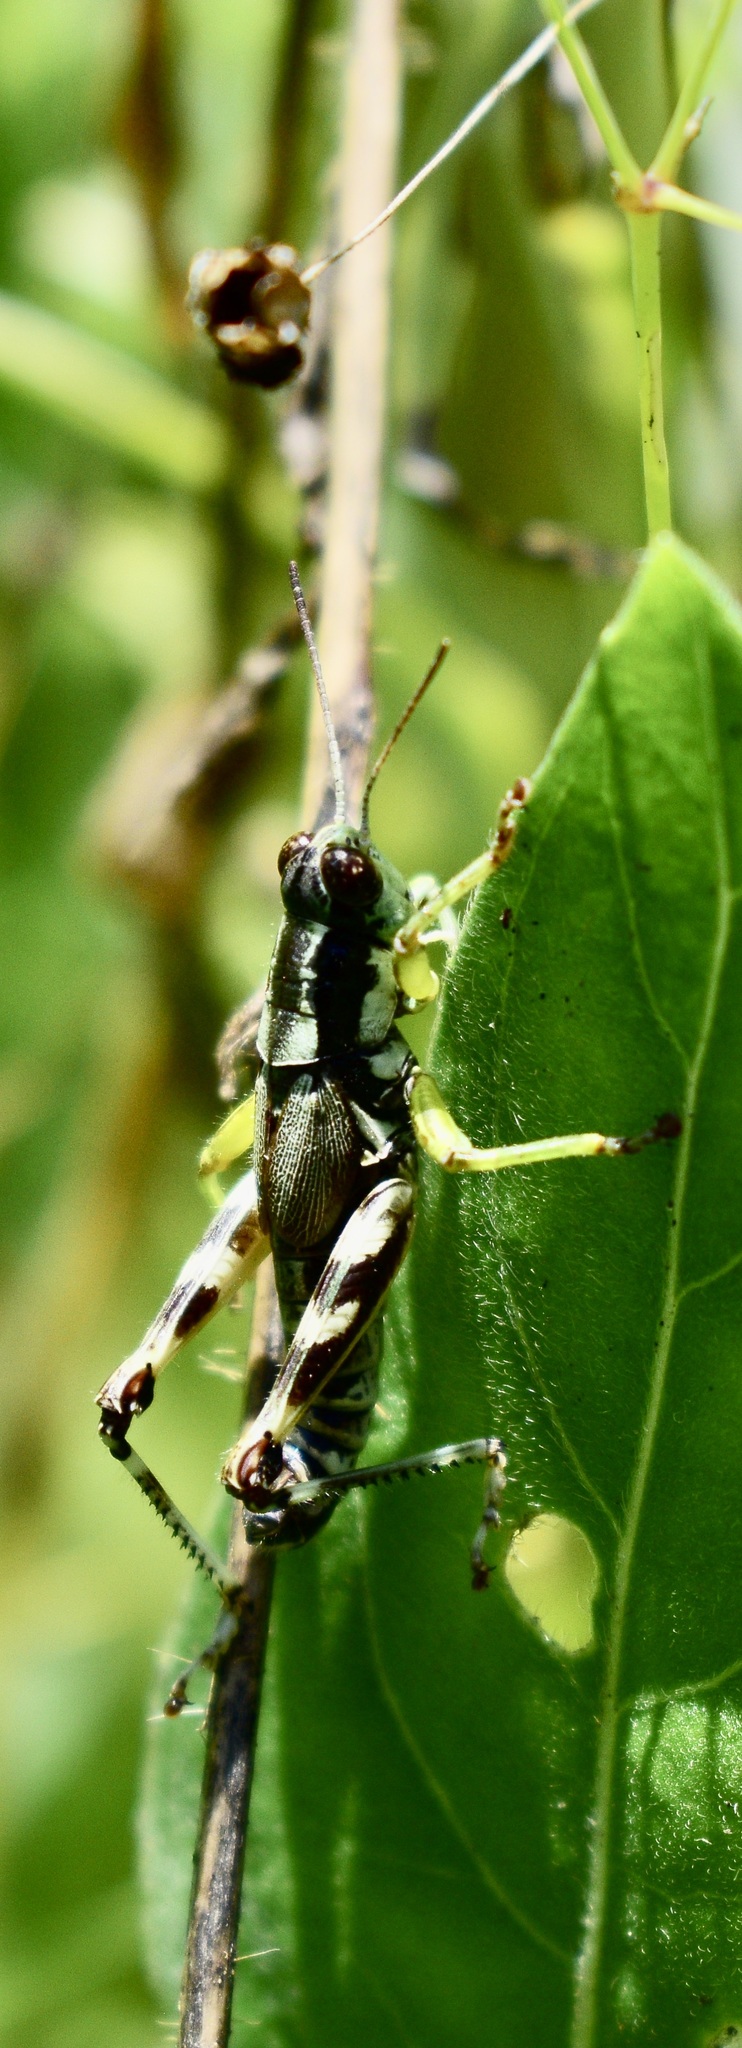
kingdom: Animalia
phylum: Arthropoda
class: Insecta
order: Orthoptera
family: Acrididae
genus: Melanoplus
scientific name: Melanoplus viridipes
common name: Green-legged locust
